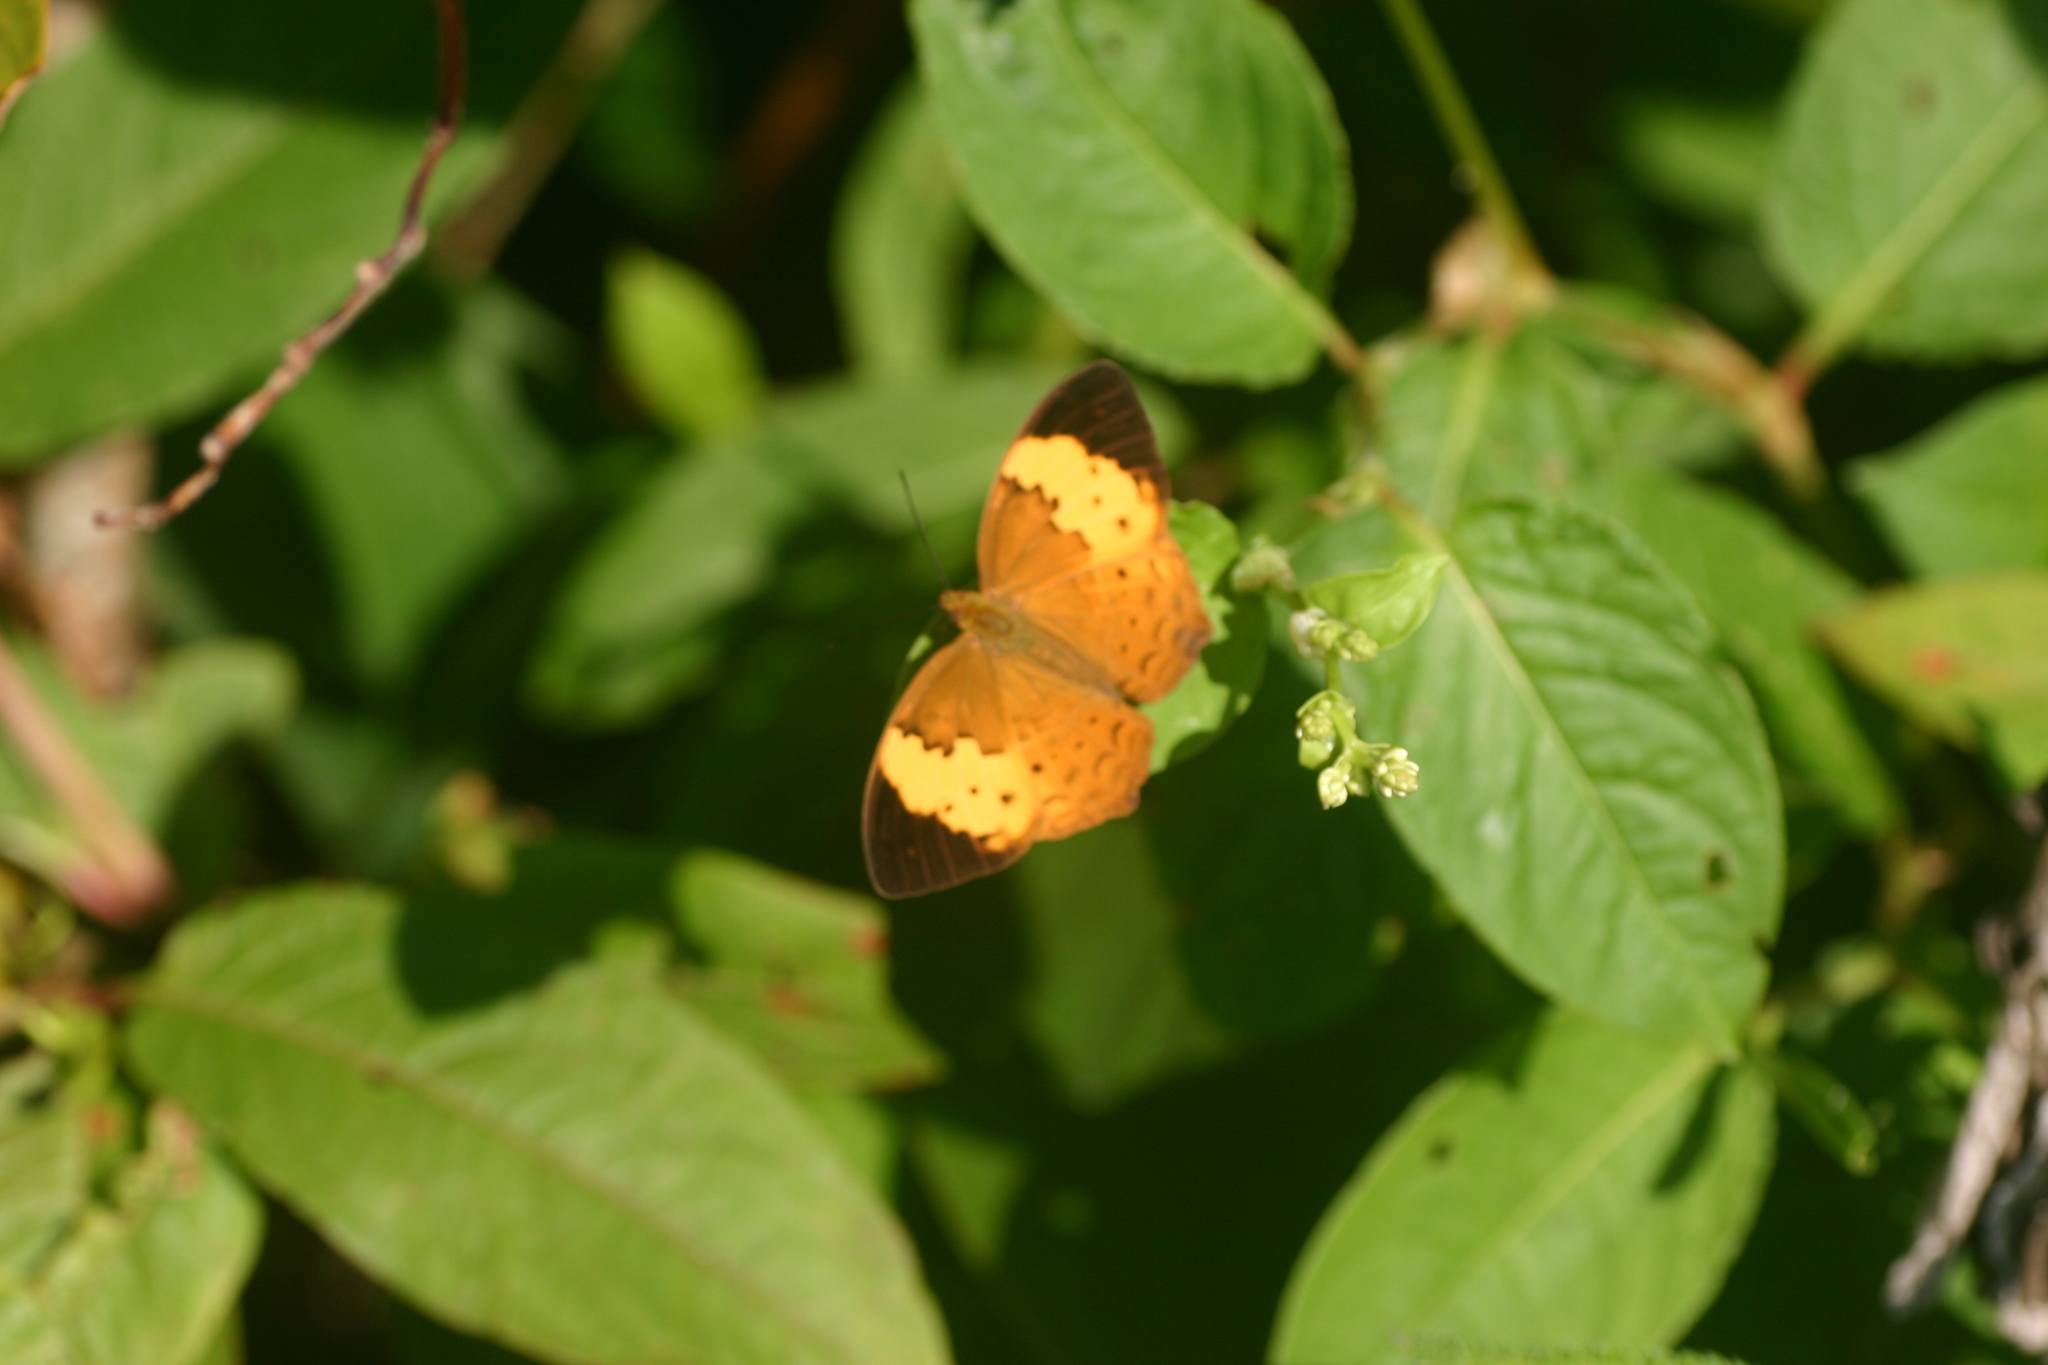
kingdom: Animalia
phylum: Arthropoda
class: Insecta
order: Lepidoptera
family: Nymphalidae
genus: Cupha
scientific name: Cupha erymanthis
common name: Rustic
